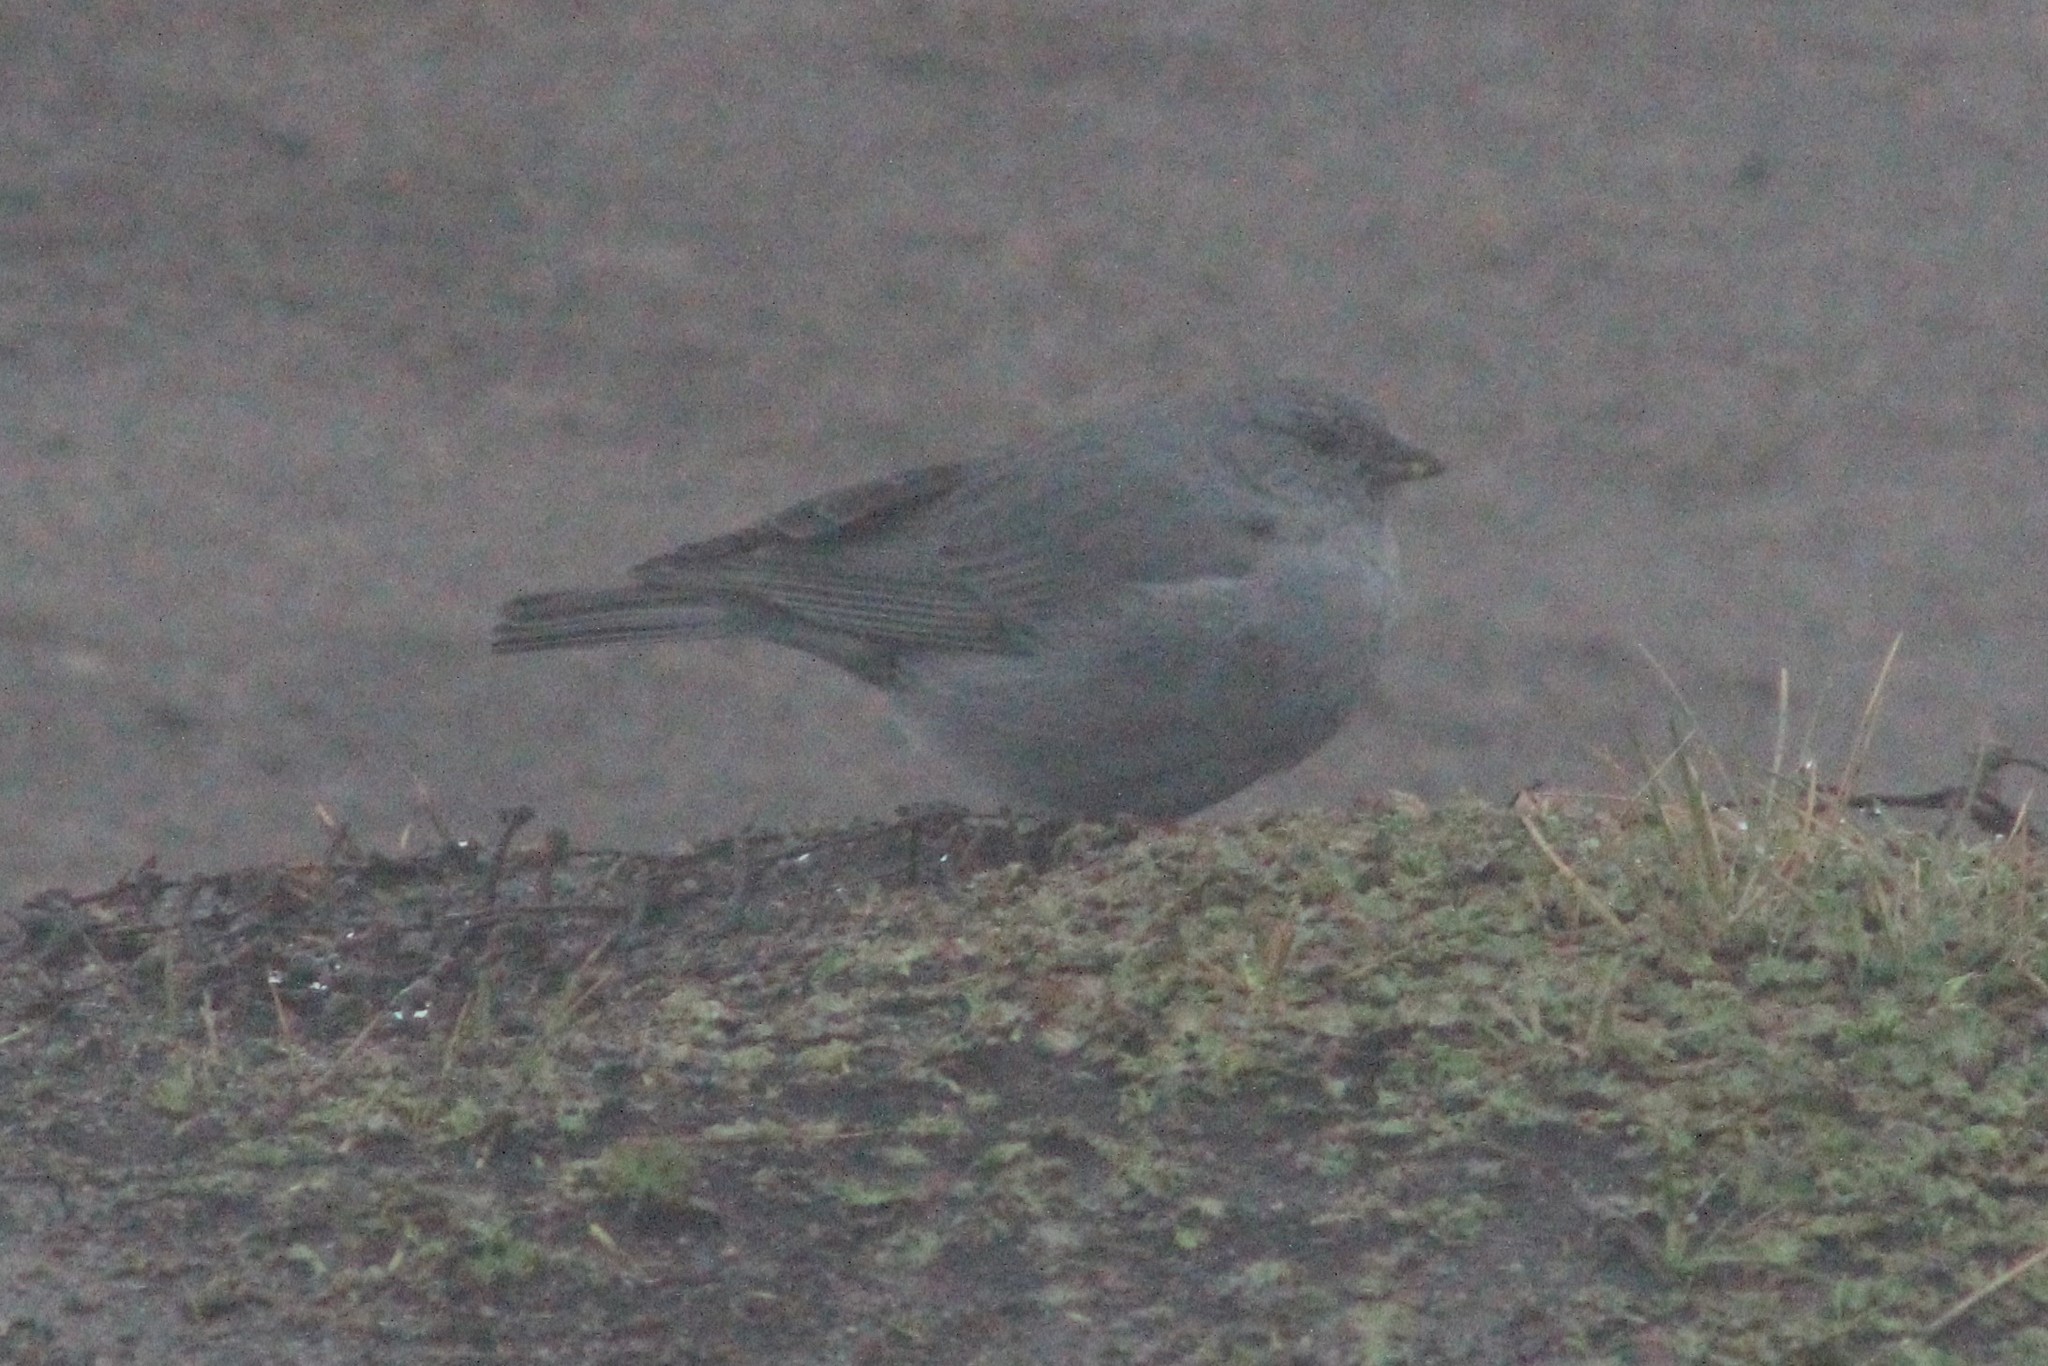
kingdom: Animalia
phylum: Chordata
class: Aves
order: Passeriformes
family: Thraupidae
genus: Geospizopsis
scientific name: Geospizopsis unicolor
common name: Plumbeous sierra-finch
